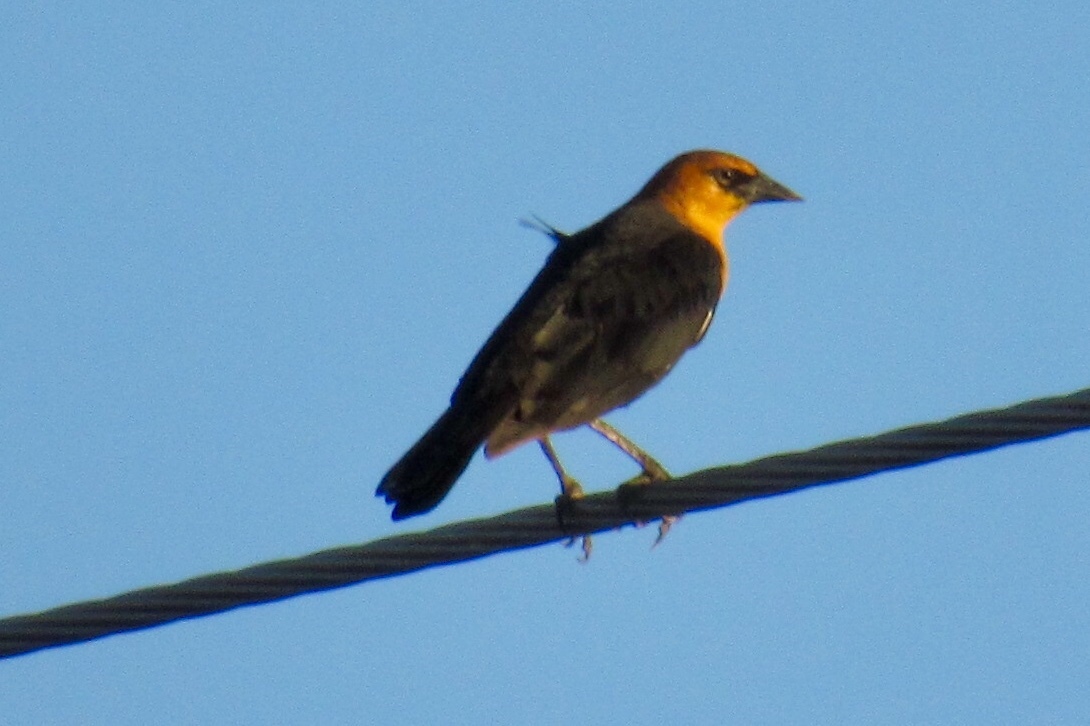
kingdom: Animalia
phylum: Chordata
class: Aves
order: Passeriformes
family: Icteridae
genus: Xanthocephalus
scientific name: Xanthocephalus xanthocephalus
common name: Yellow-headed blackbird
